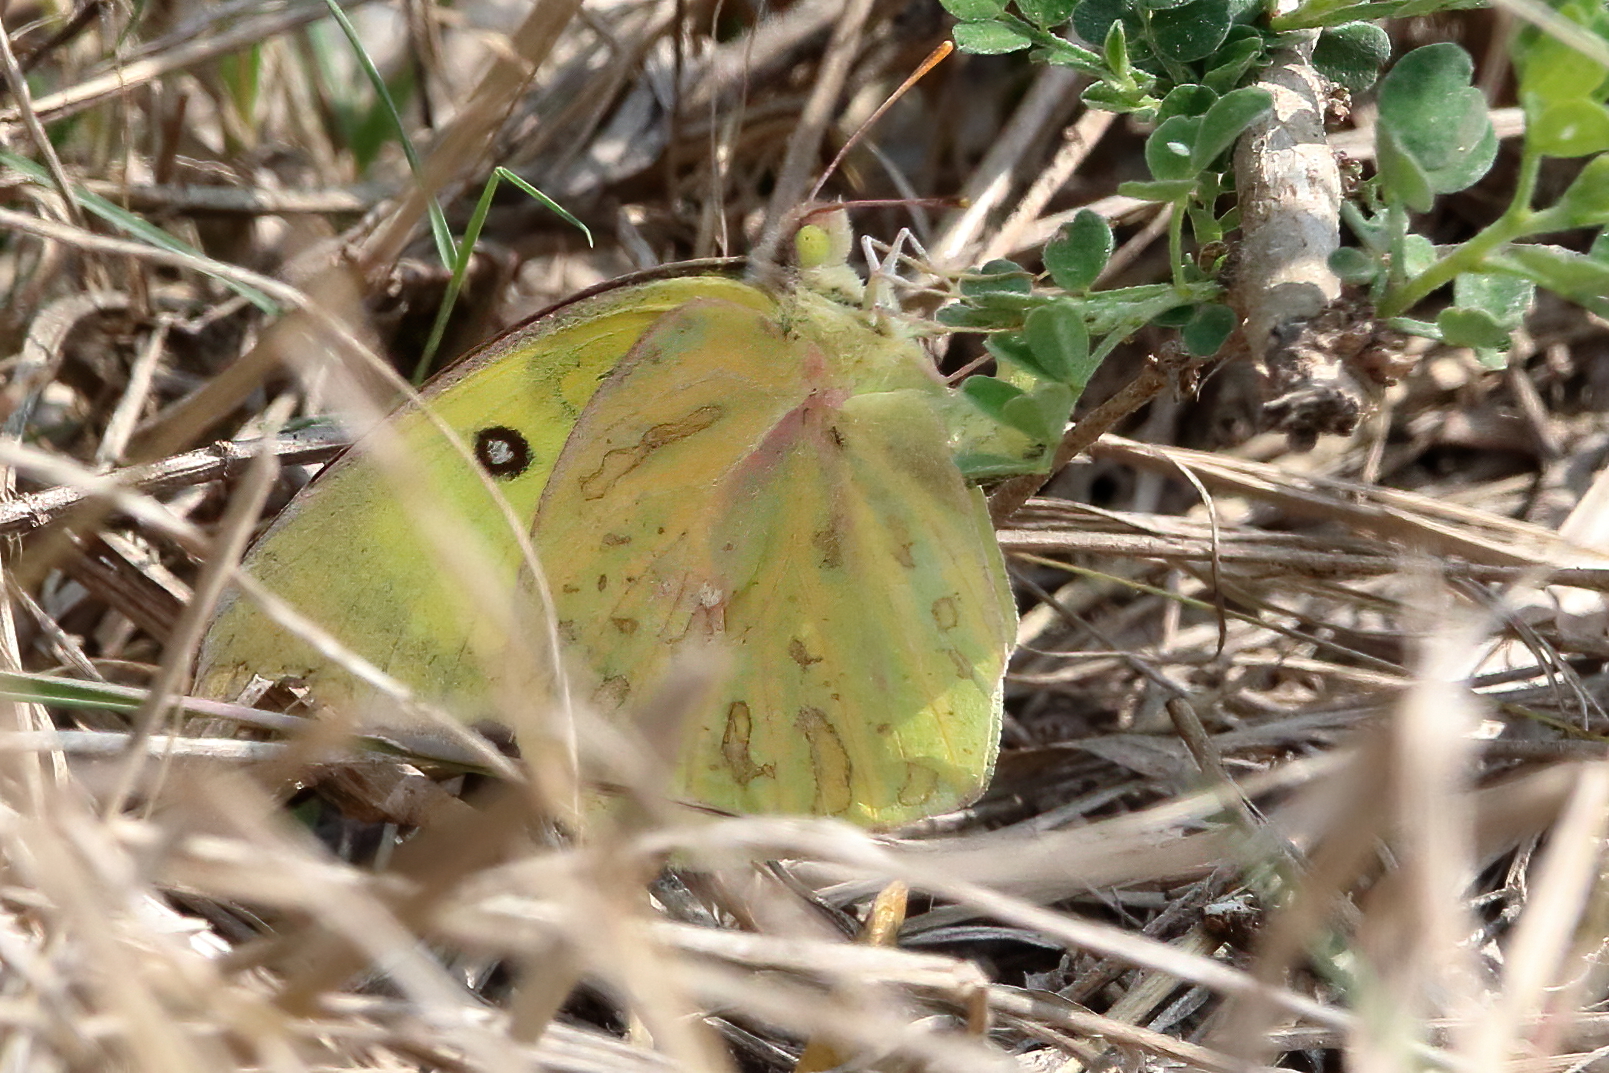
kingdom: Animalia
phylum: Arthropoda
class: Insecta
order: Lepidoptera
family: Pieridae
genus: Zerene
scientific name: Zerene cesonia
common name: Southern dogface
